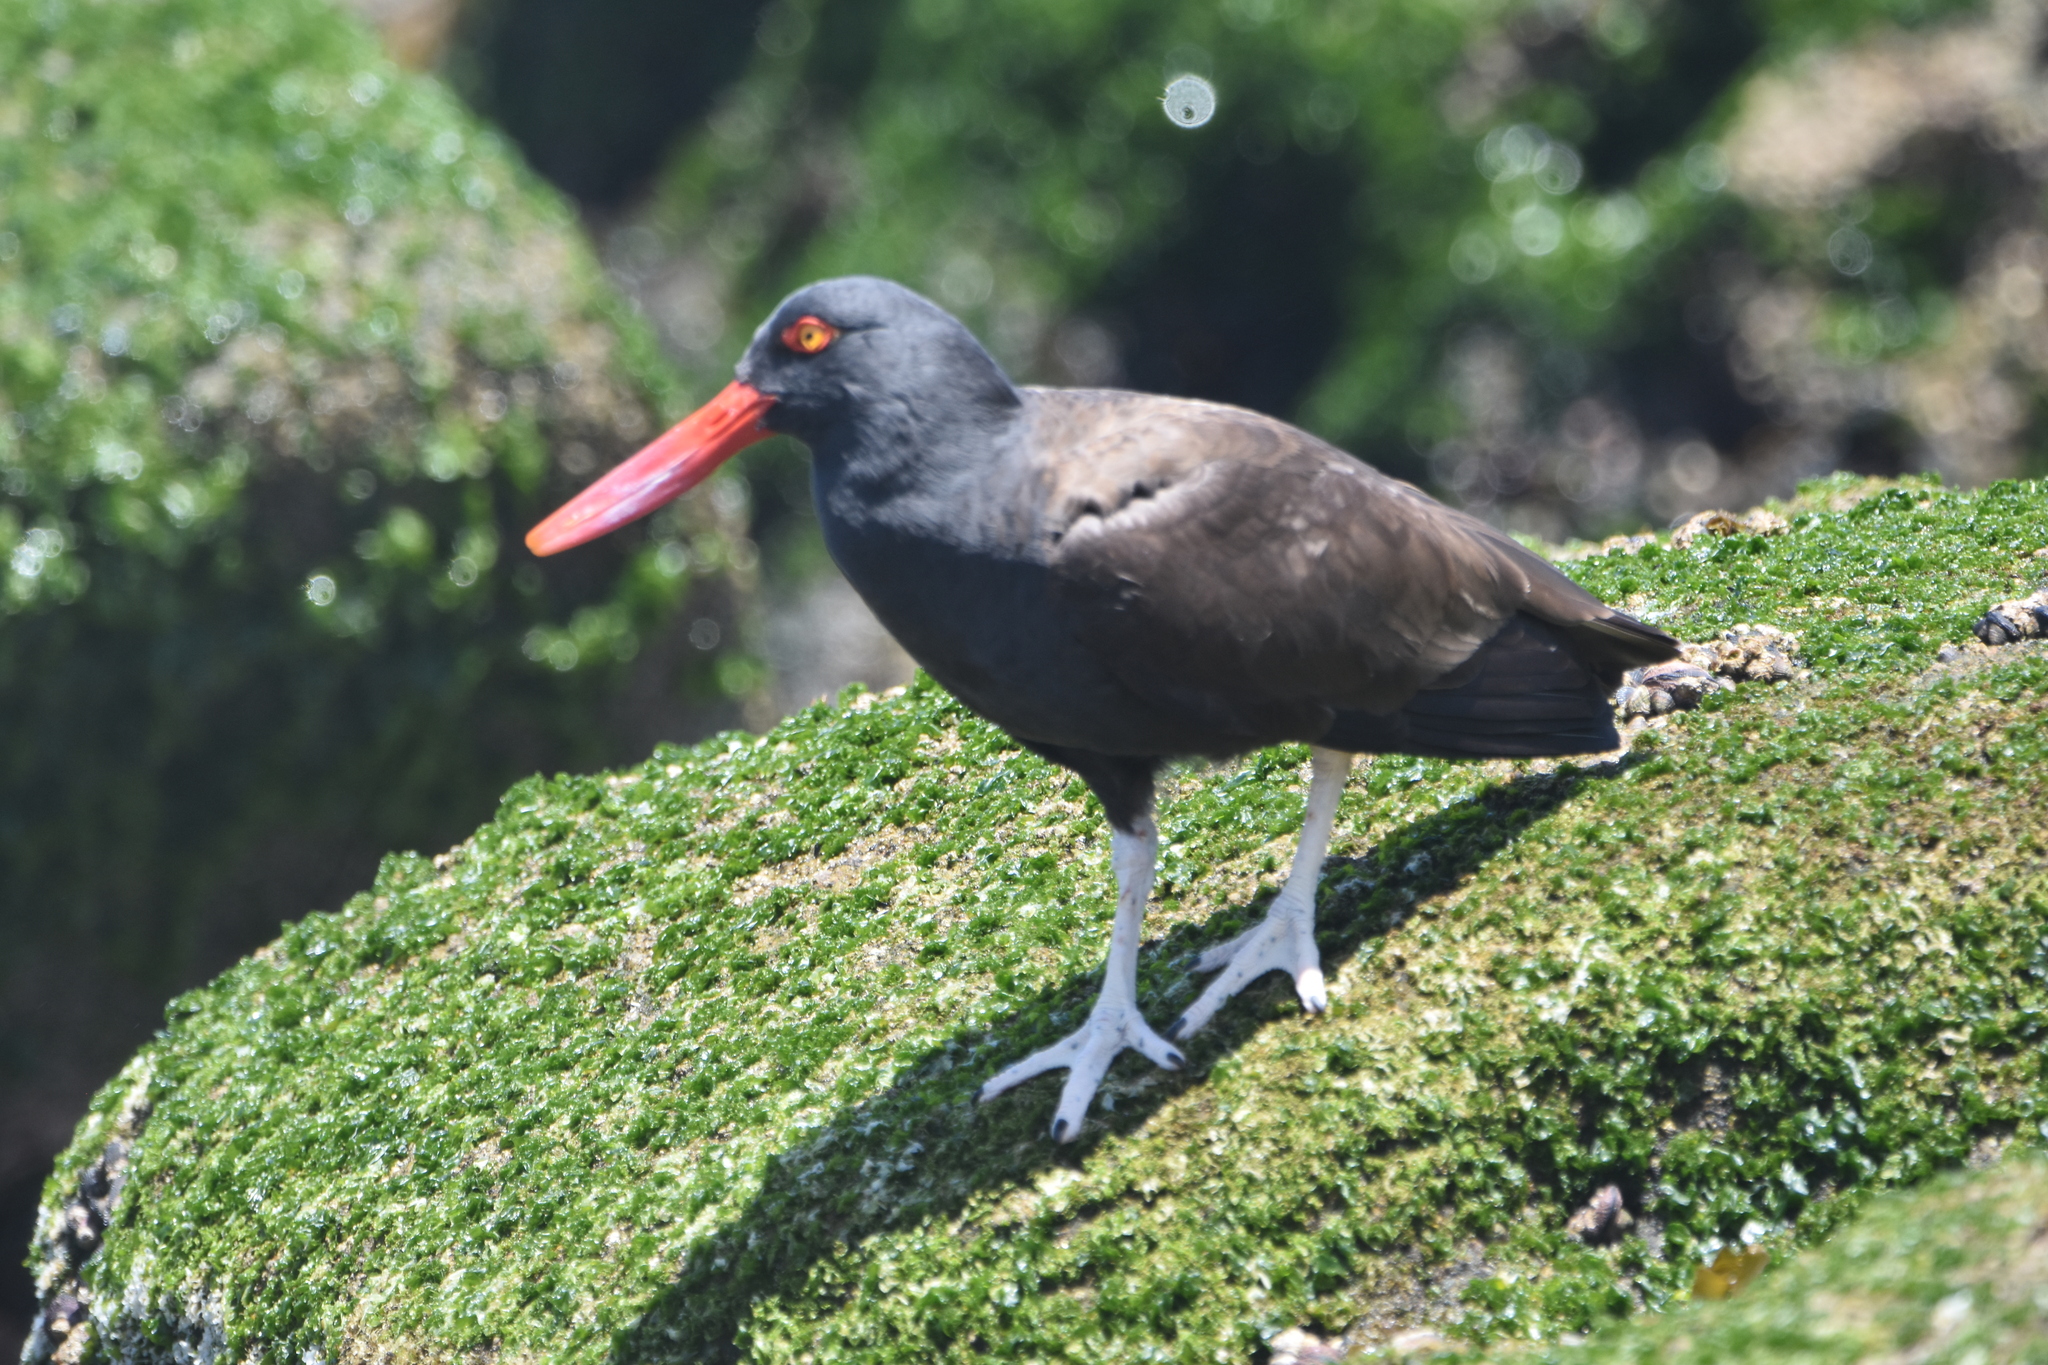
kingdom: Animalia
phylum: Chordata
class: Aves
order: Charadriiformes
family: Haematopodidae
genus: Haematopus
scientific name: Haematopus ater
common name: Blackish oystercatcher
